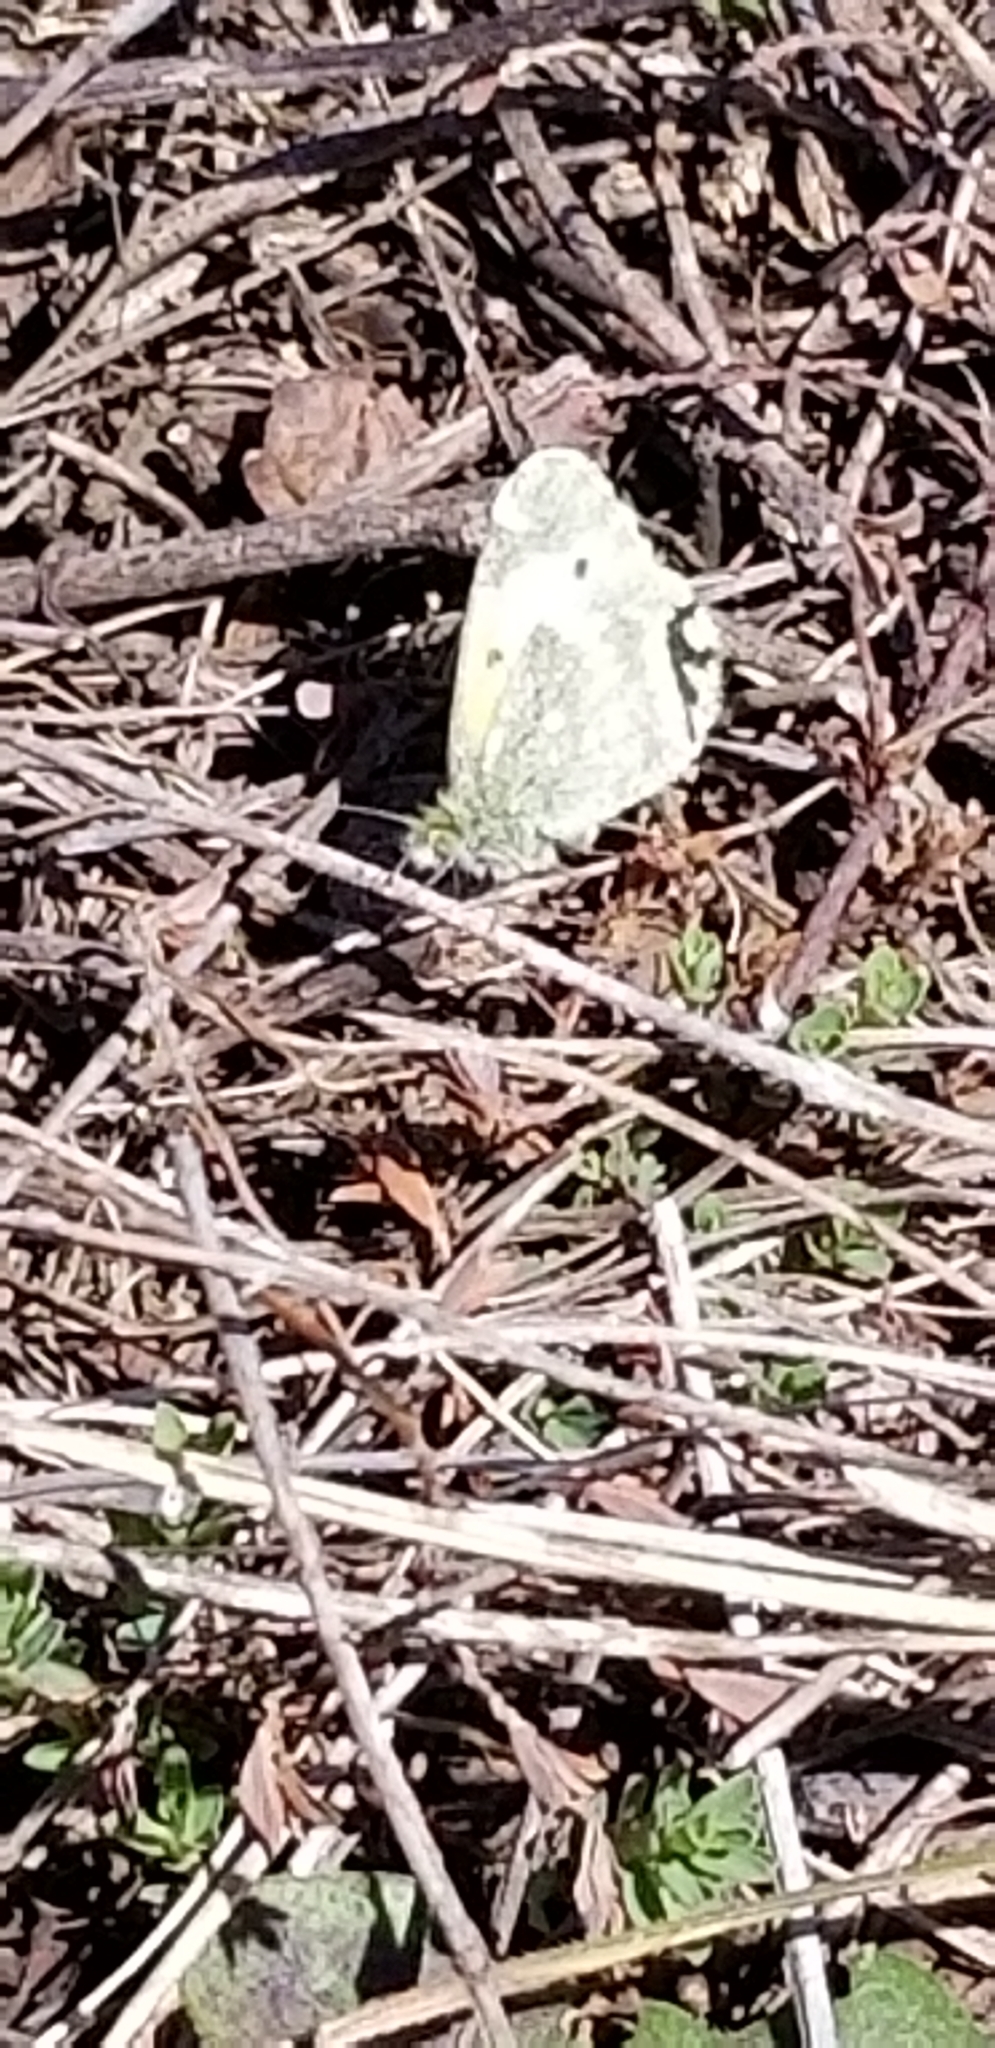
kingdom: Animalia
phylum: Arthropoda
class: Insecta
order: Lepidoptera
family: Pieridae
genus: Nathalis
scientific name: Nathalis iole
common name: Dainty sulphur
